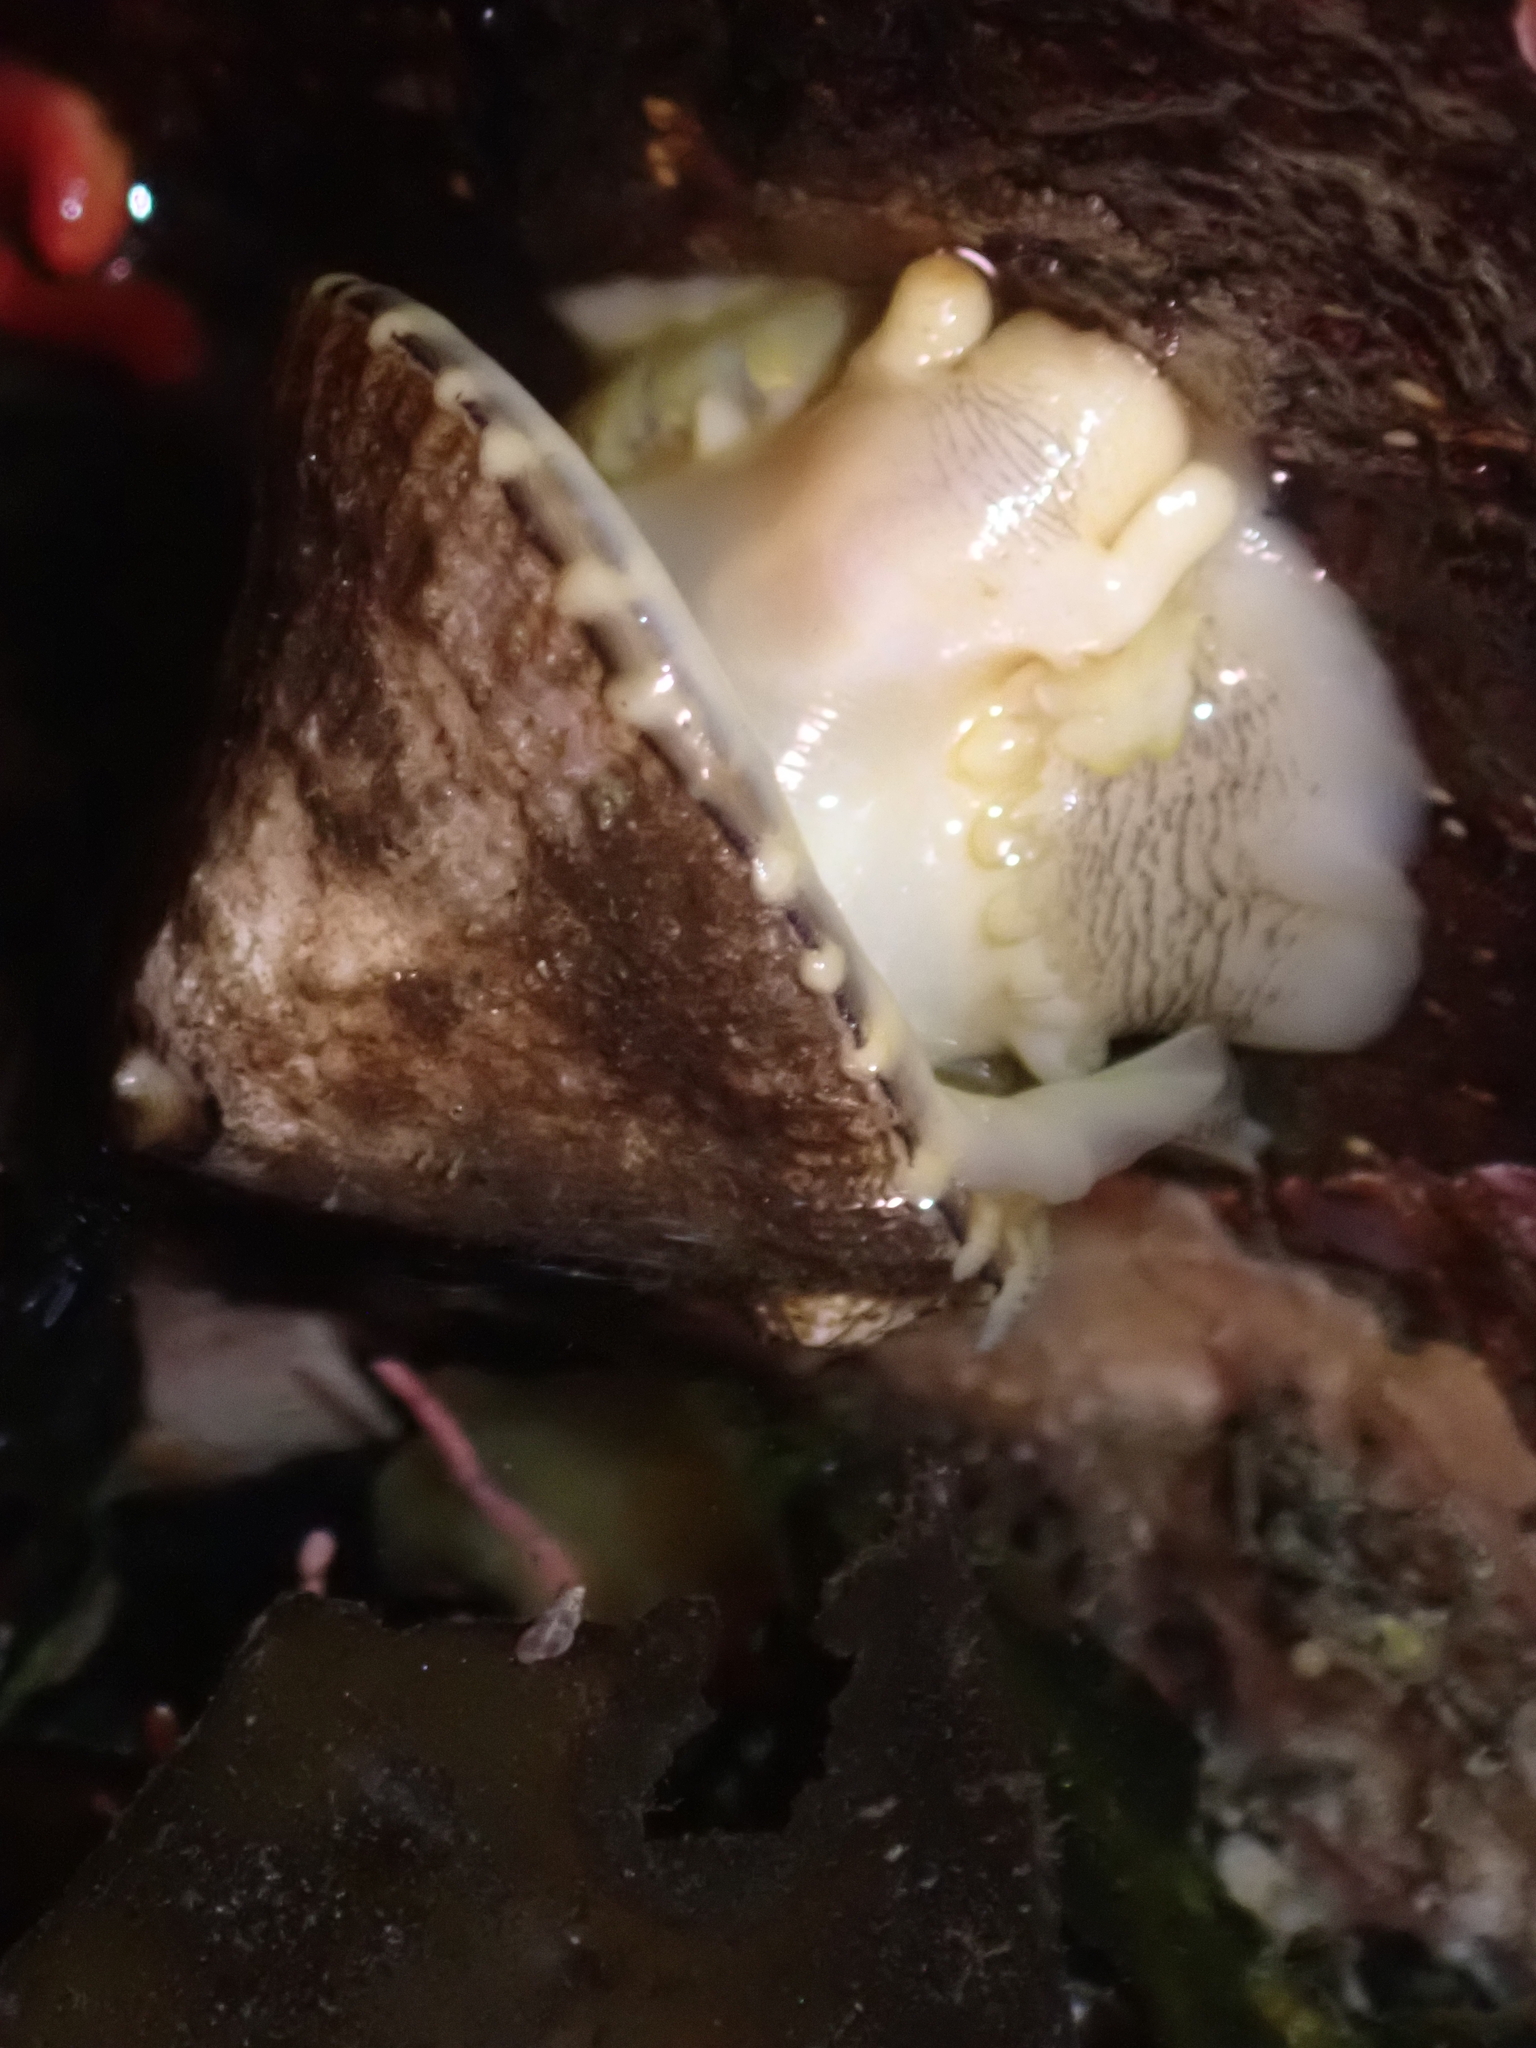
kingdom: Animalia
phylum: Mollusca
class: Gastropoda
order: Lepetellida
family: Fissurellidae
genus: Diodora
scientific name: Diodora aspera
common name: Rough keyhole limpet
